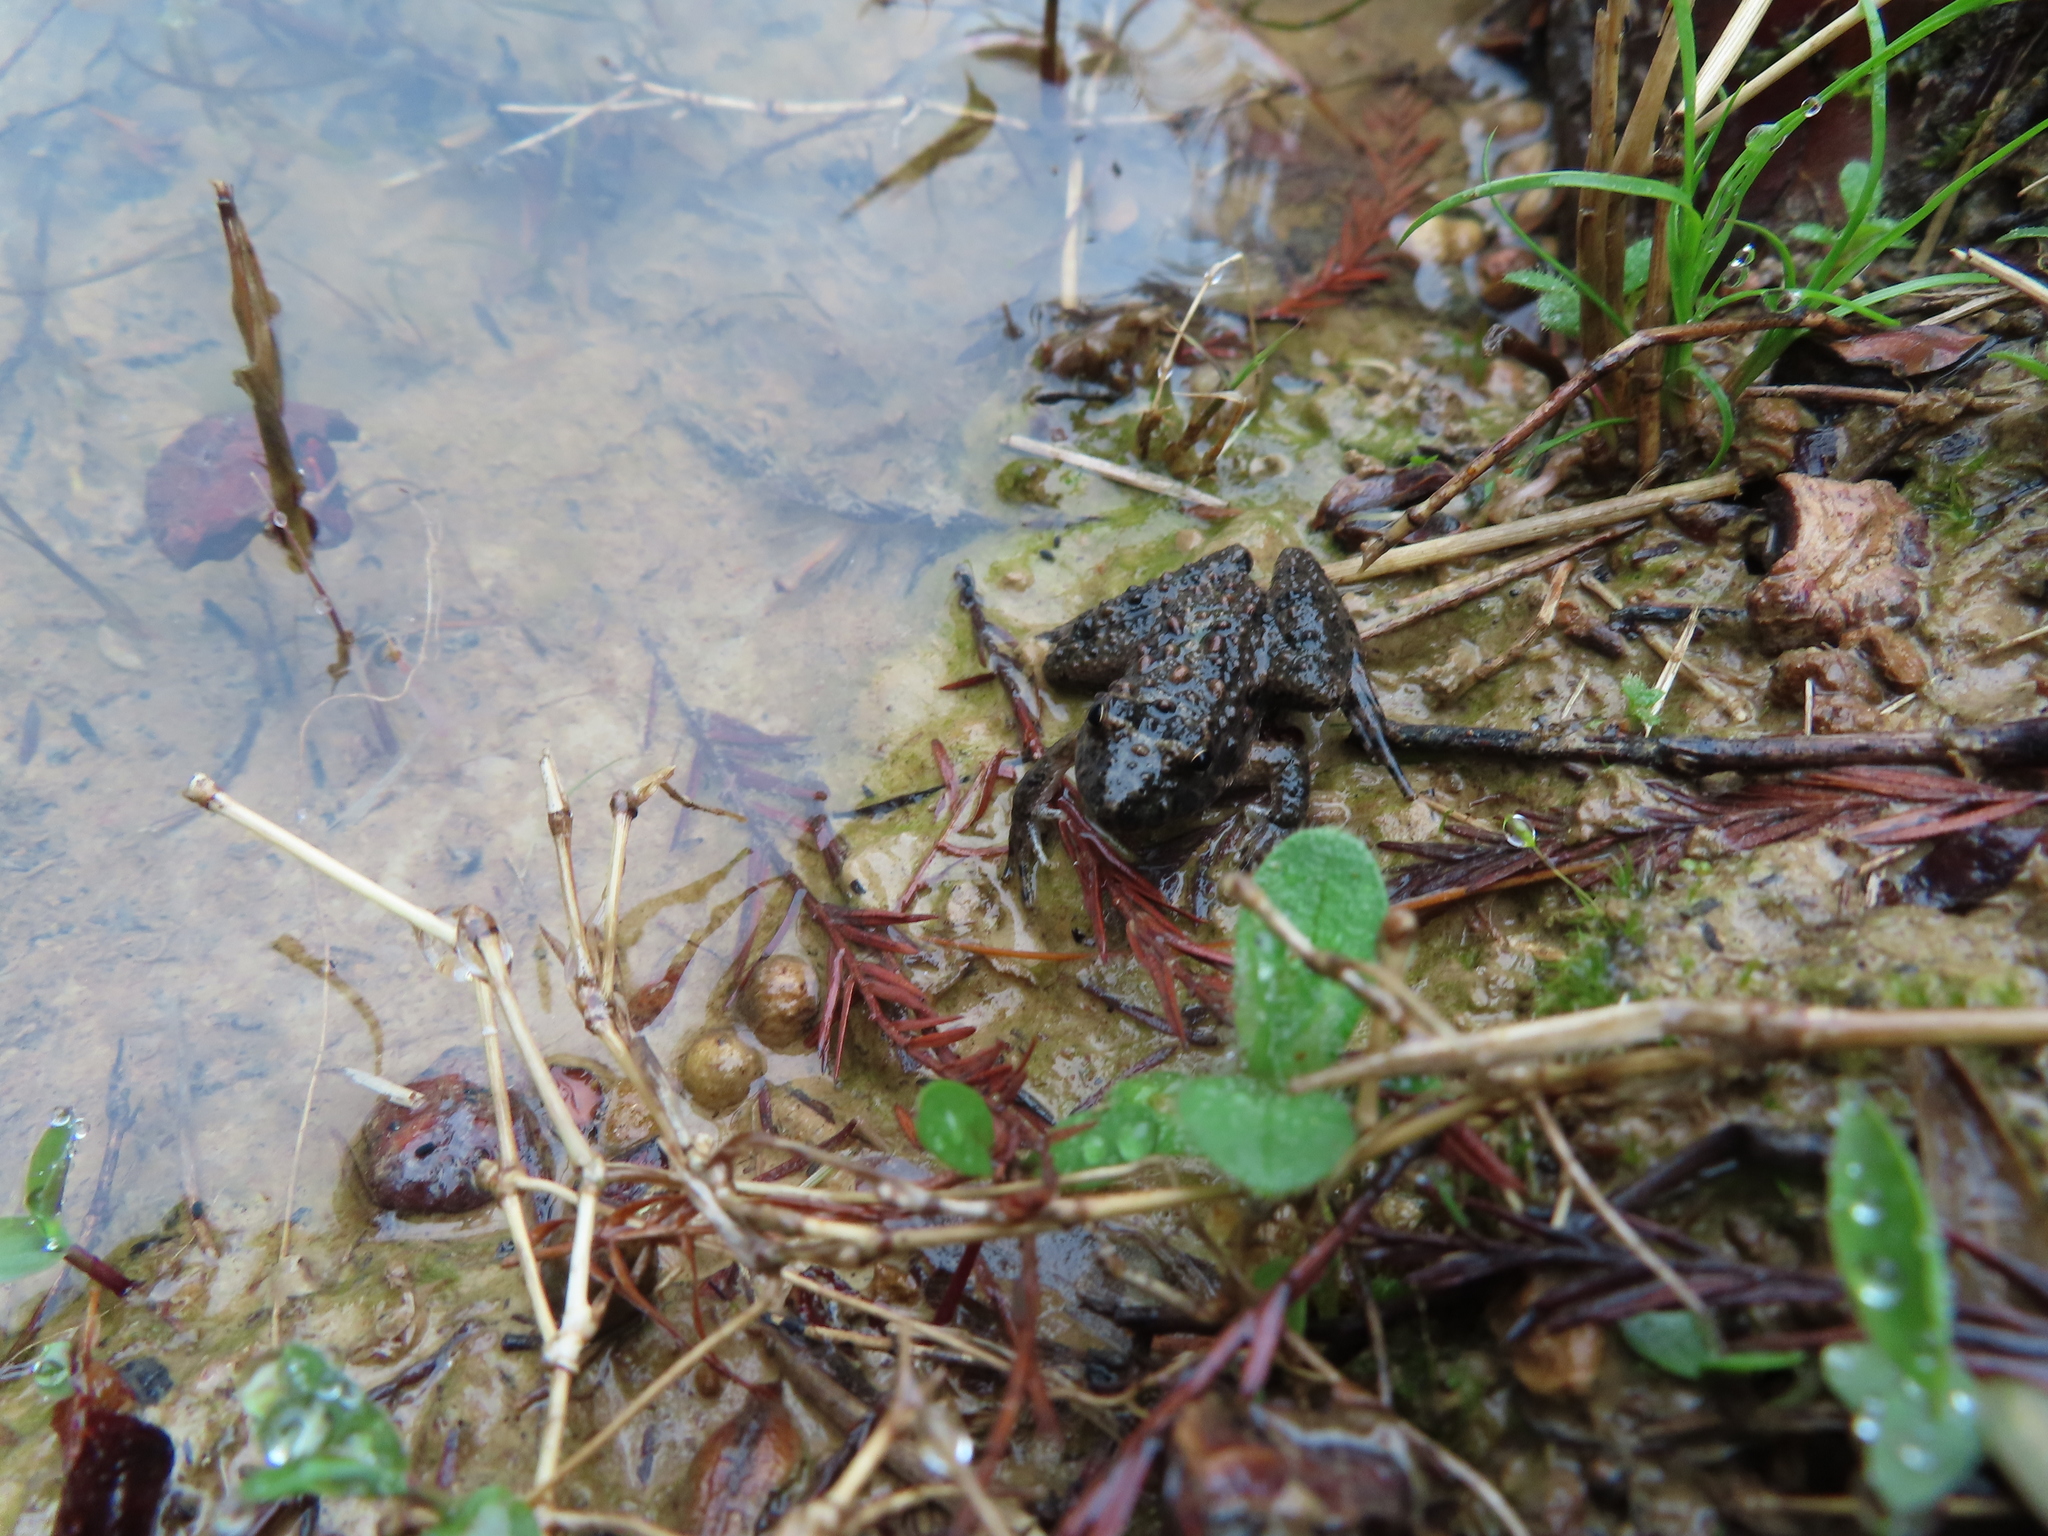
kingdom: Animalia
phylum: Chordata
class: Amphibia
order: Anura
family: Hylidae
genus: Acris
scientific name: Acris blanchardi
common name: Blanchard's cricket frog
